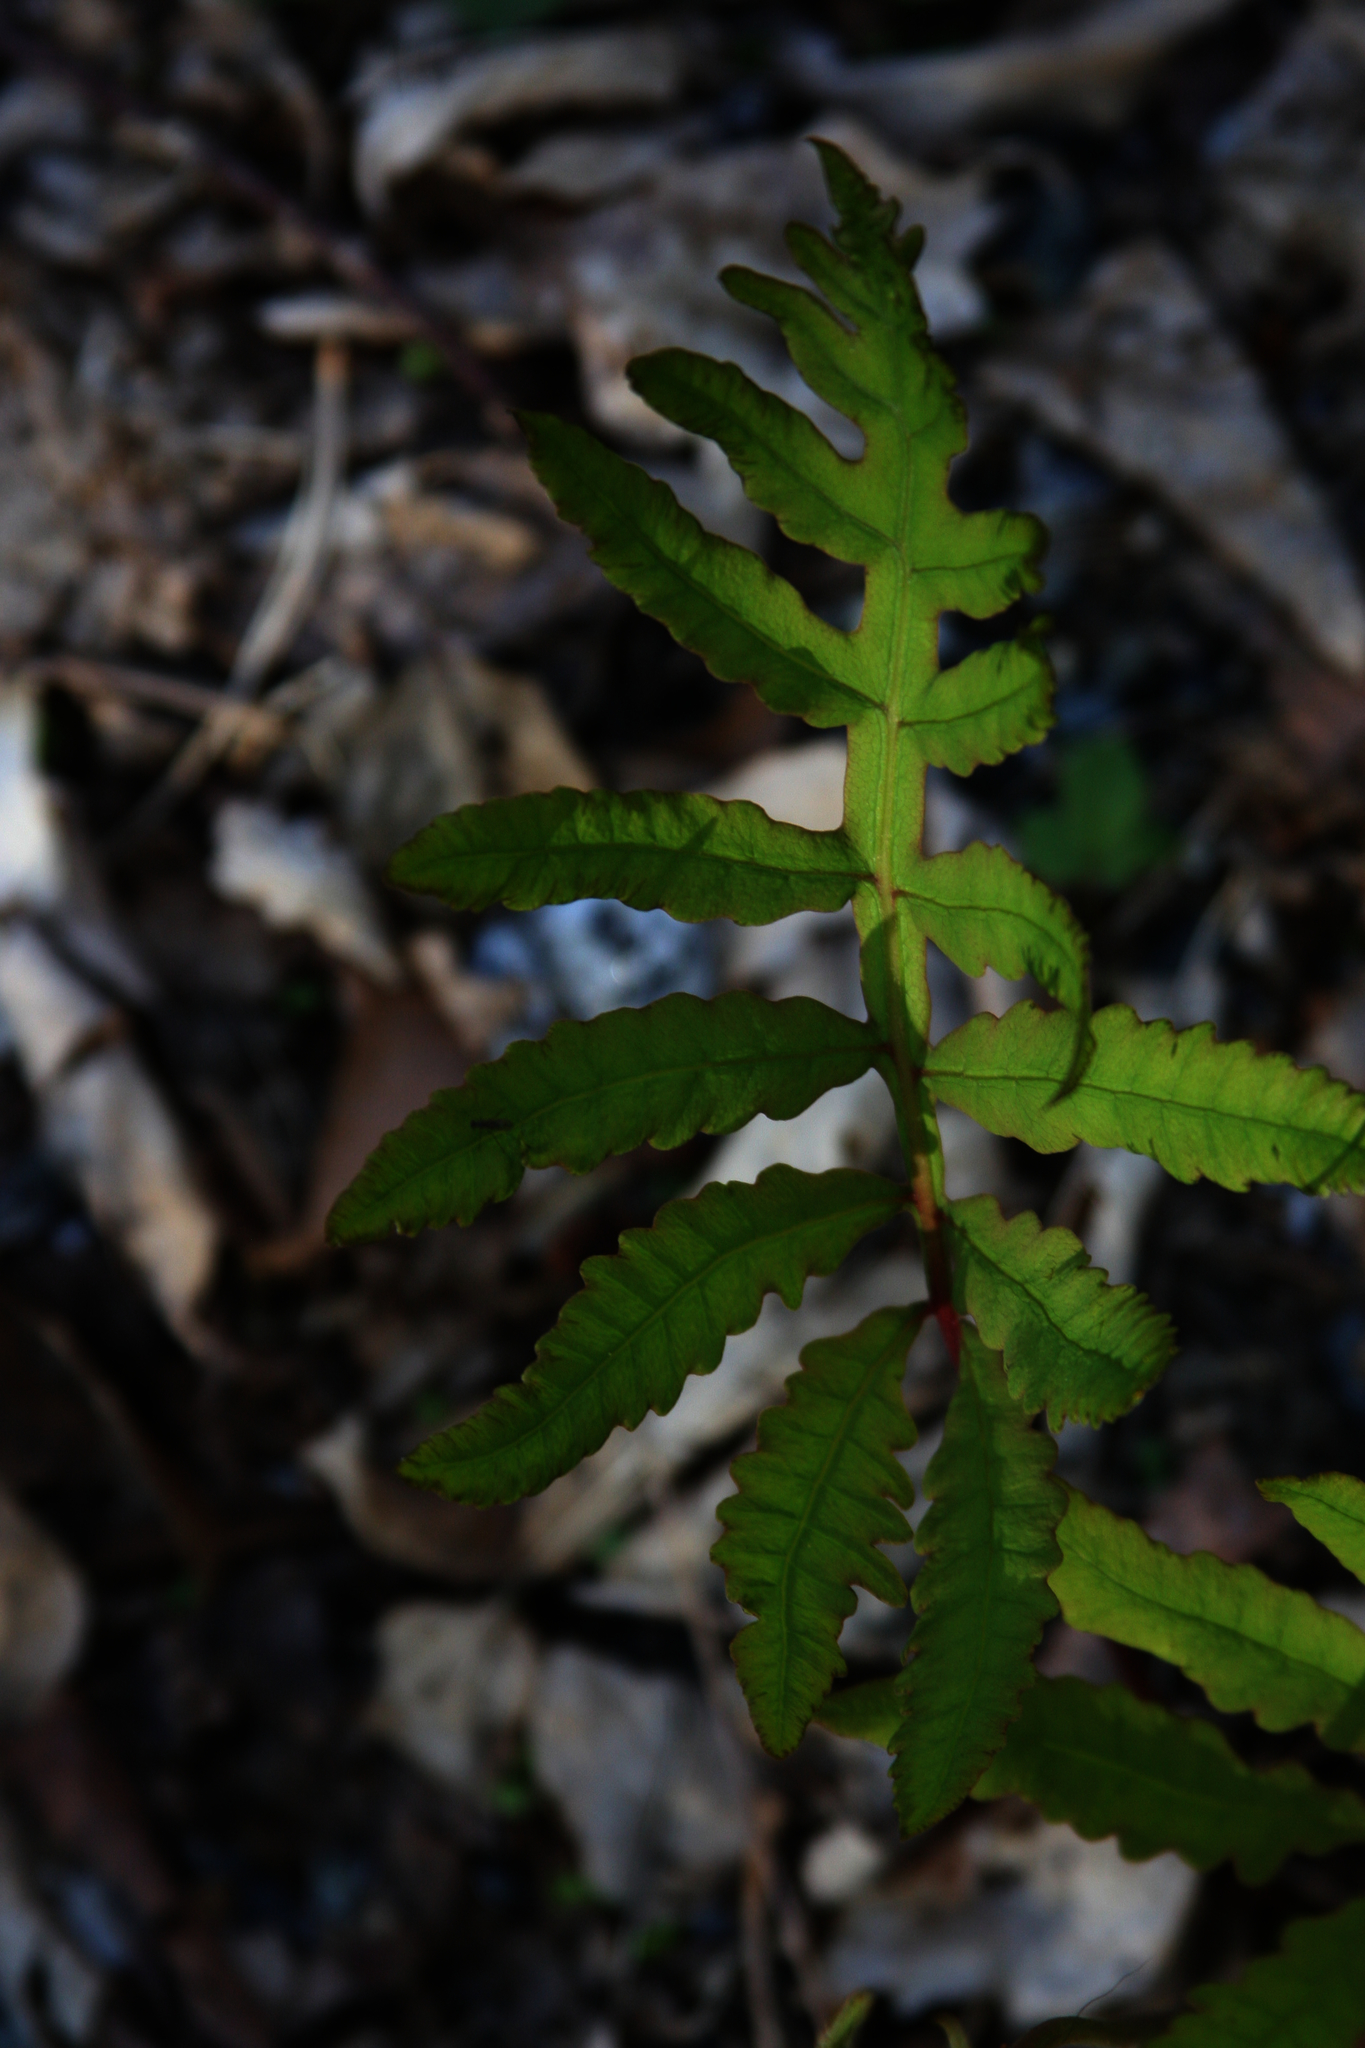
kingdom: Plantae
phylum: Tracheophyta
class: Polypodiopsida
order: Polypodiales
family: Onocleaceae
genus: Onoclea
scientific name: Onoclea sensibilis
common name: Sensitive fern
